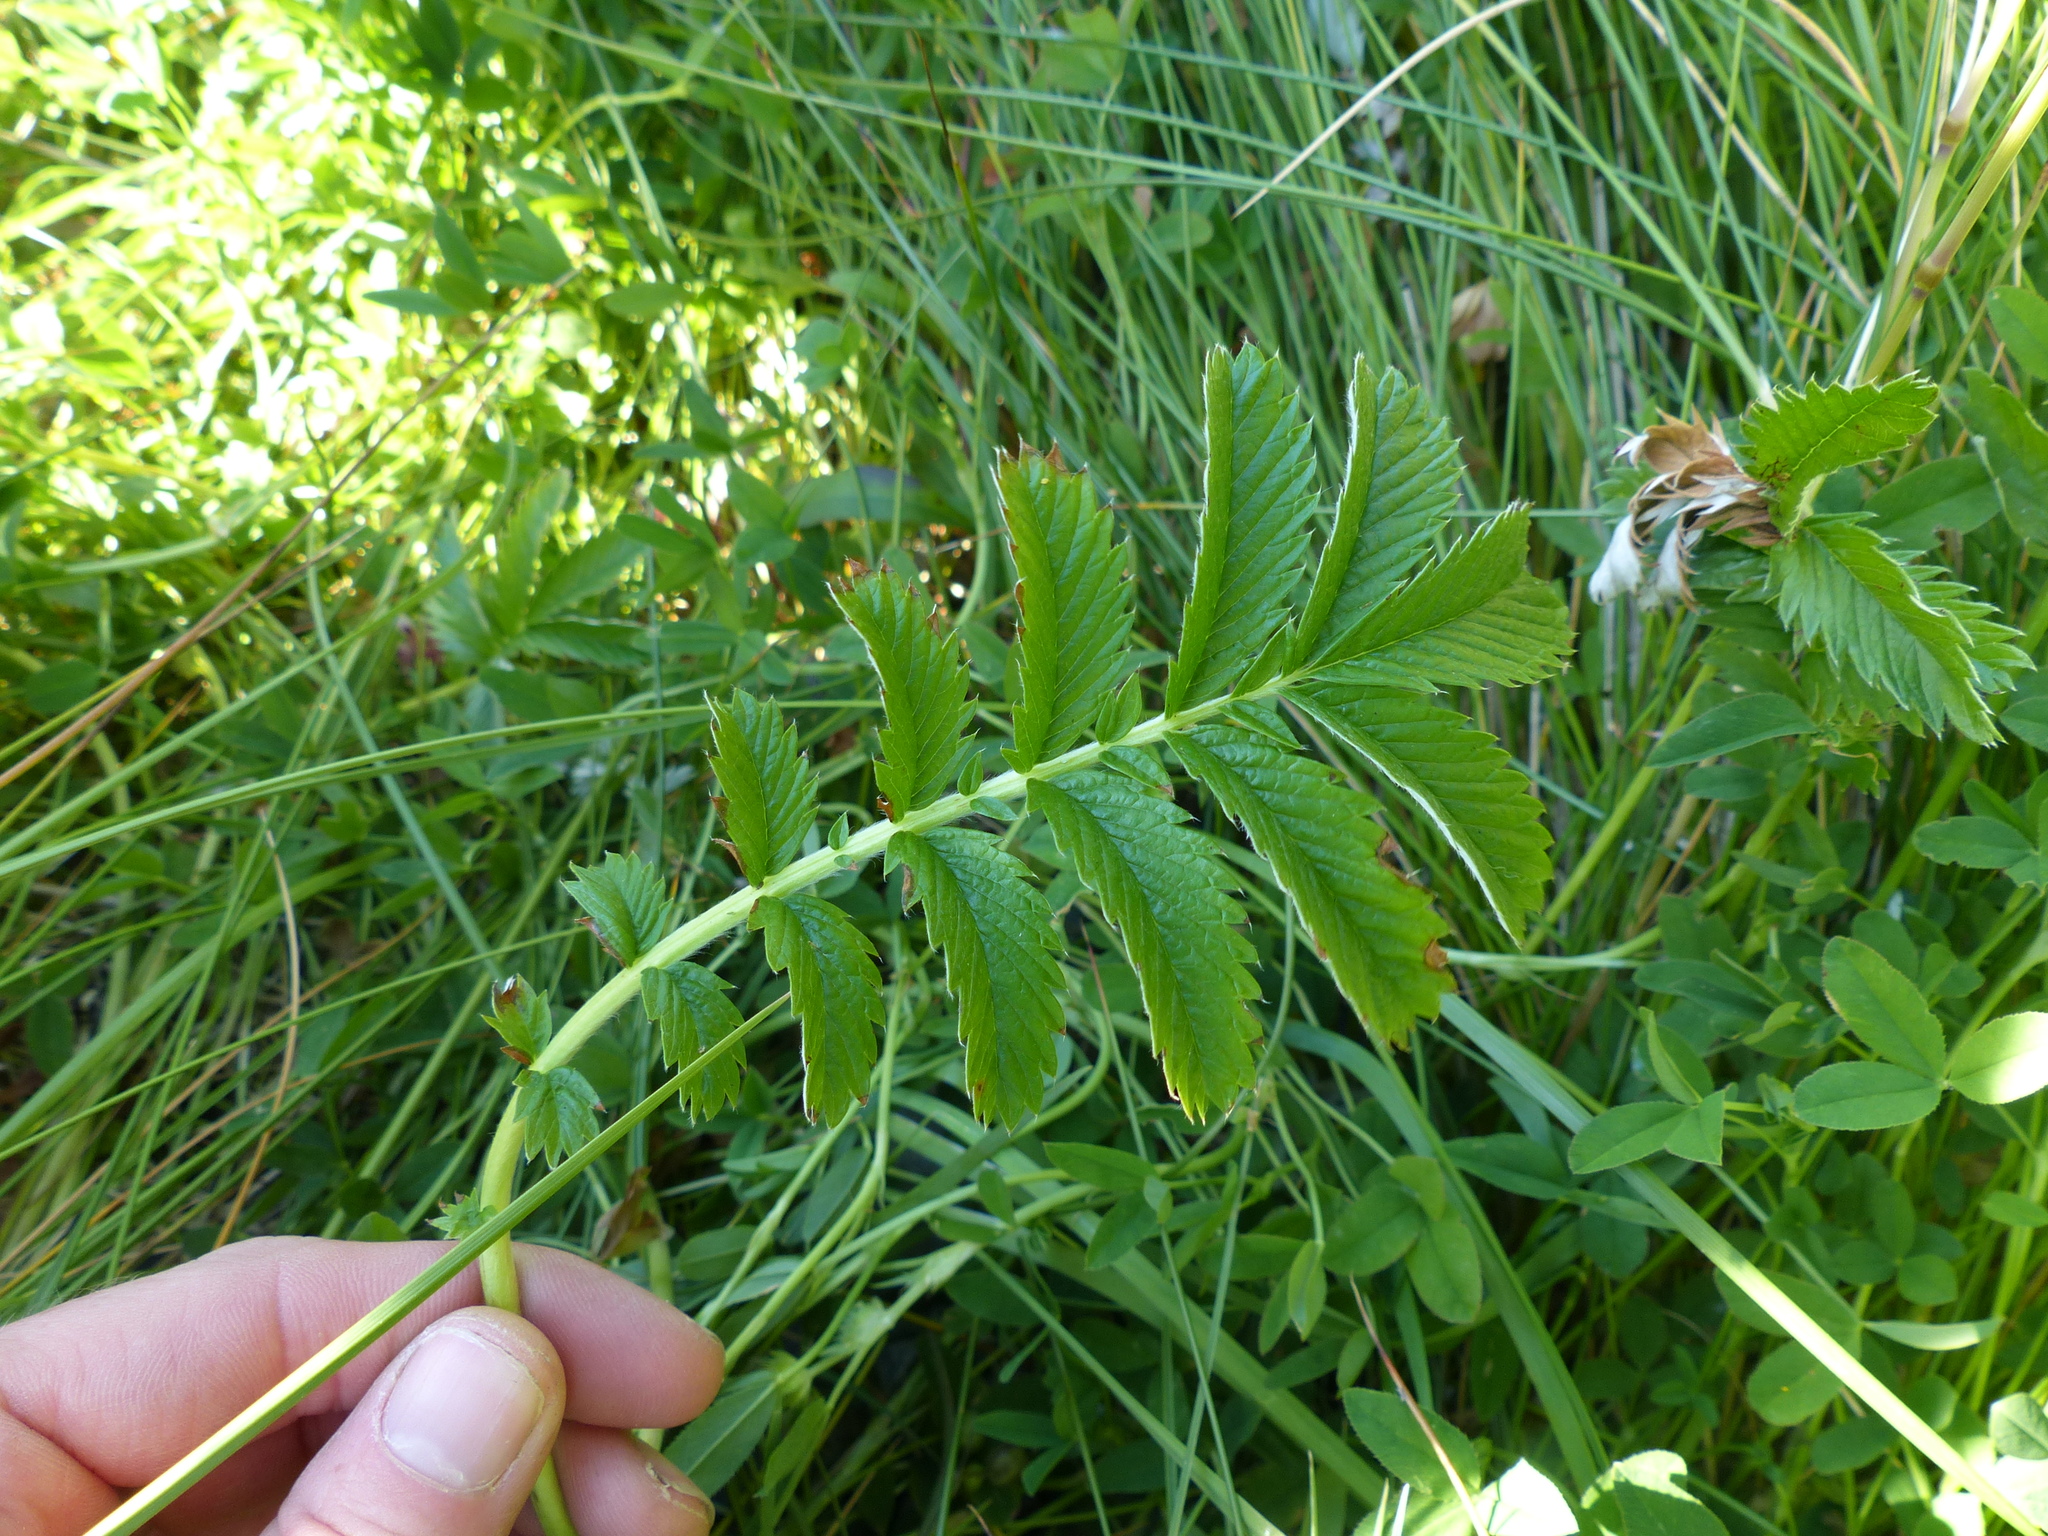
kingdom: Plantae
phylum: Tracheophyta
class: Magnoliopsida
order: Rosales
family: Rosaceae
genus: Argentina
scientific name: Argentina anserina
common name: Common silverweed
